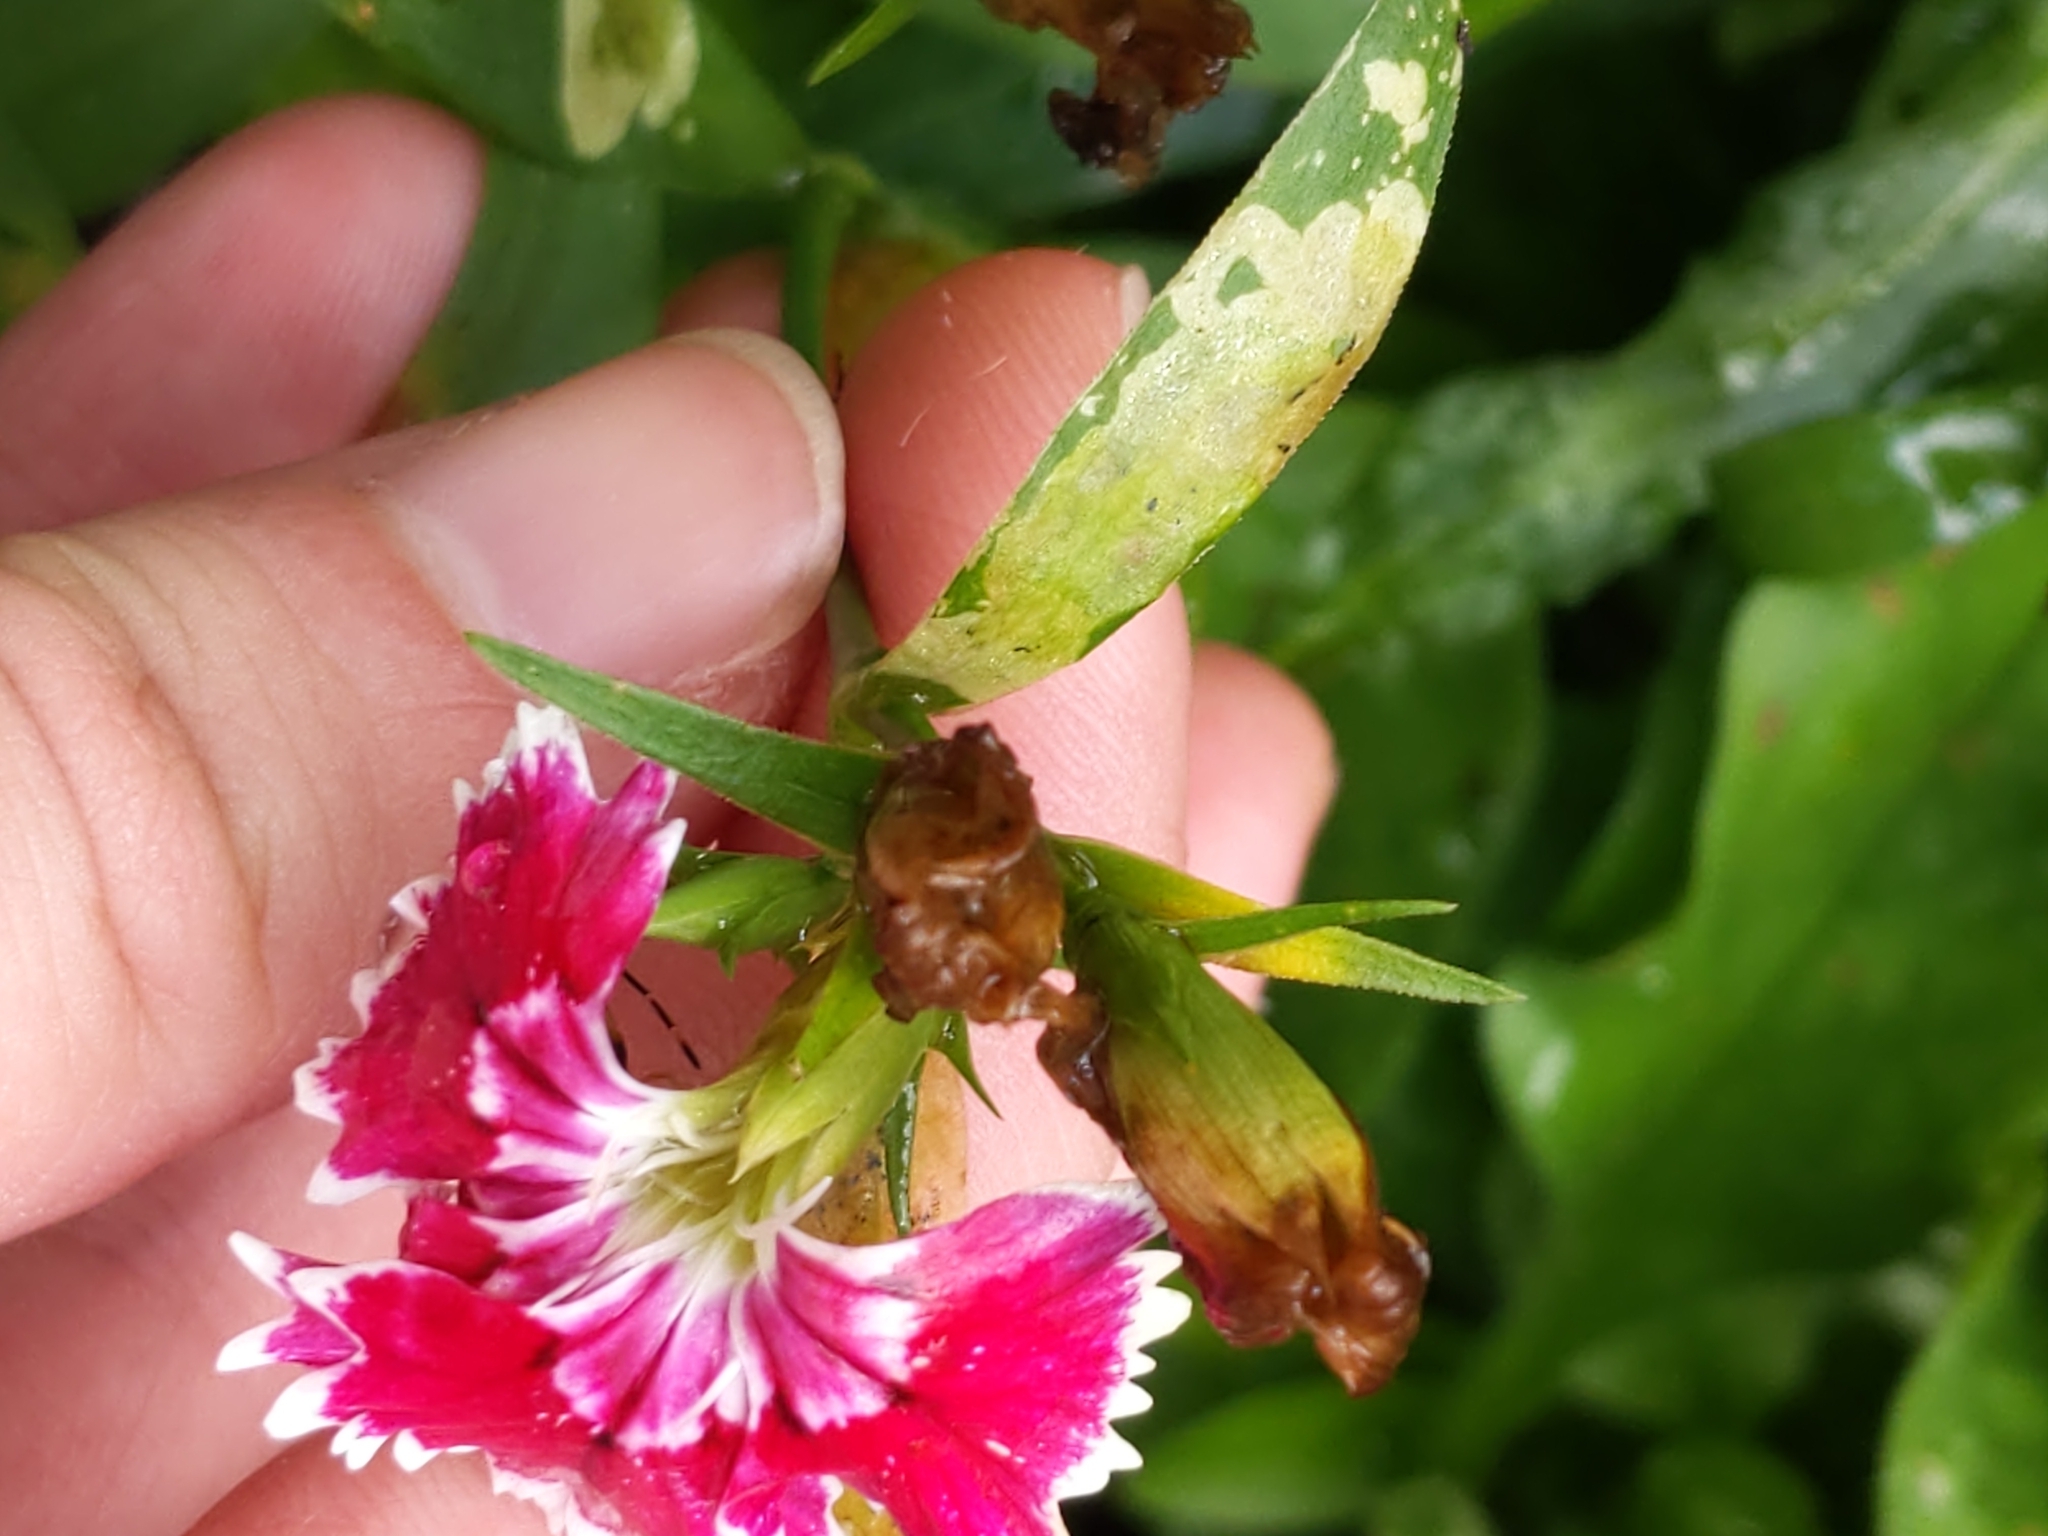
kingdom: Animalia
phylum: Arthropoda
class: Insecta
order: Diptera
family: Agromyzidae
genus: Amauromyza
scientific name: Amauromyza flavifrons
